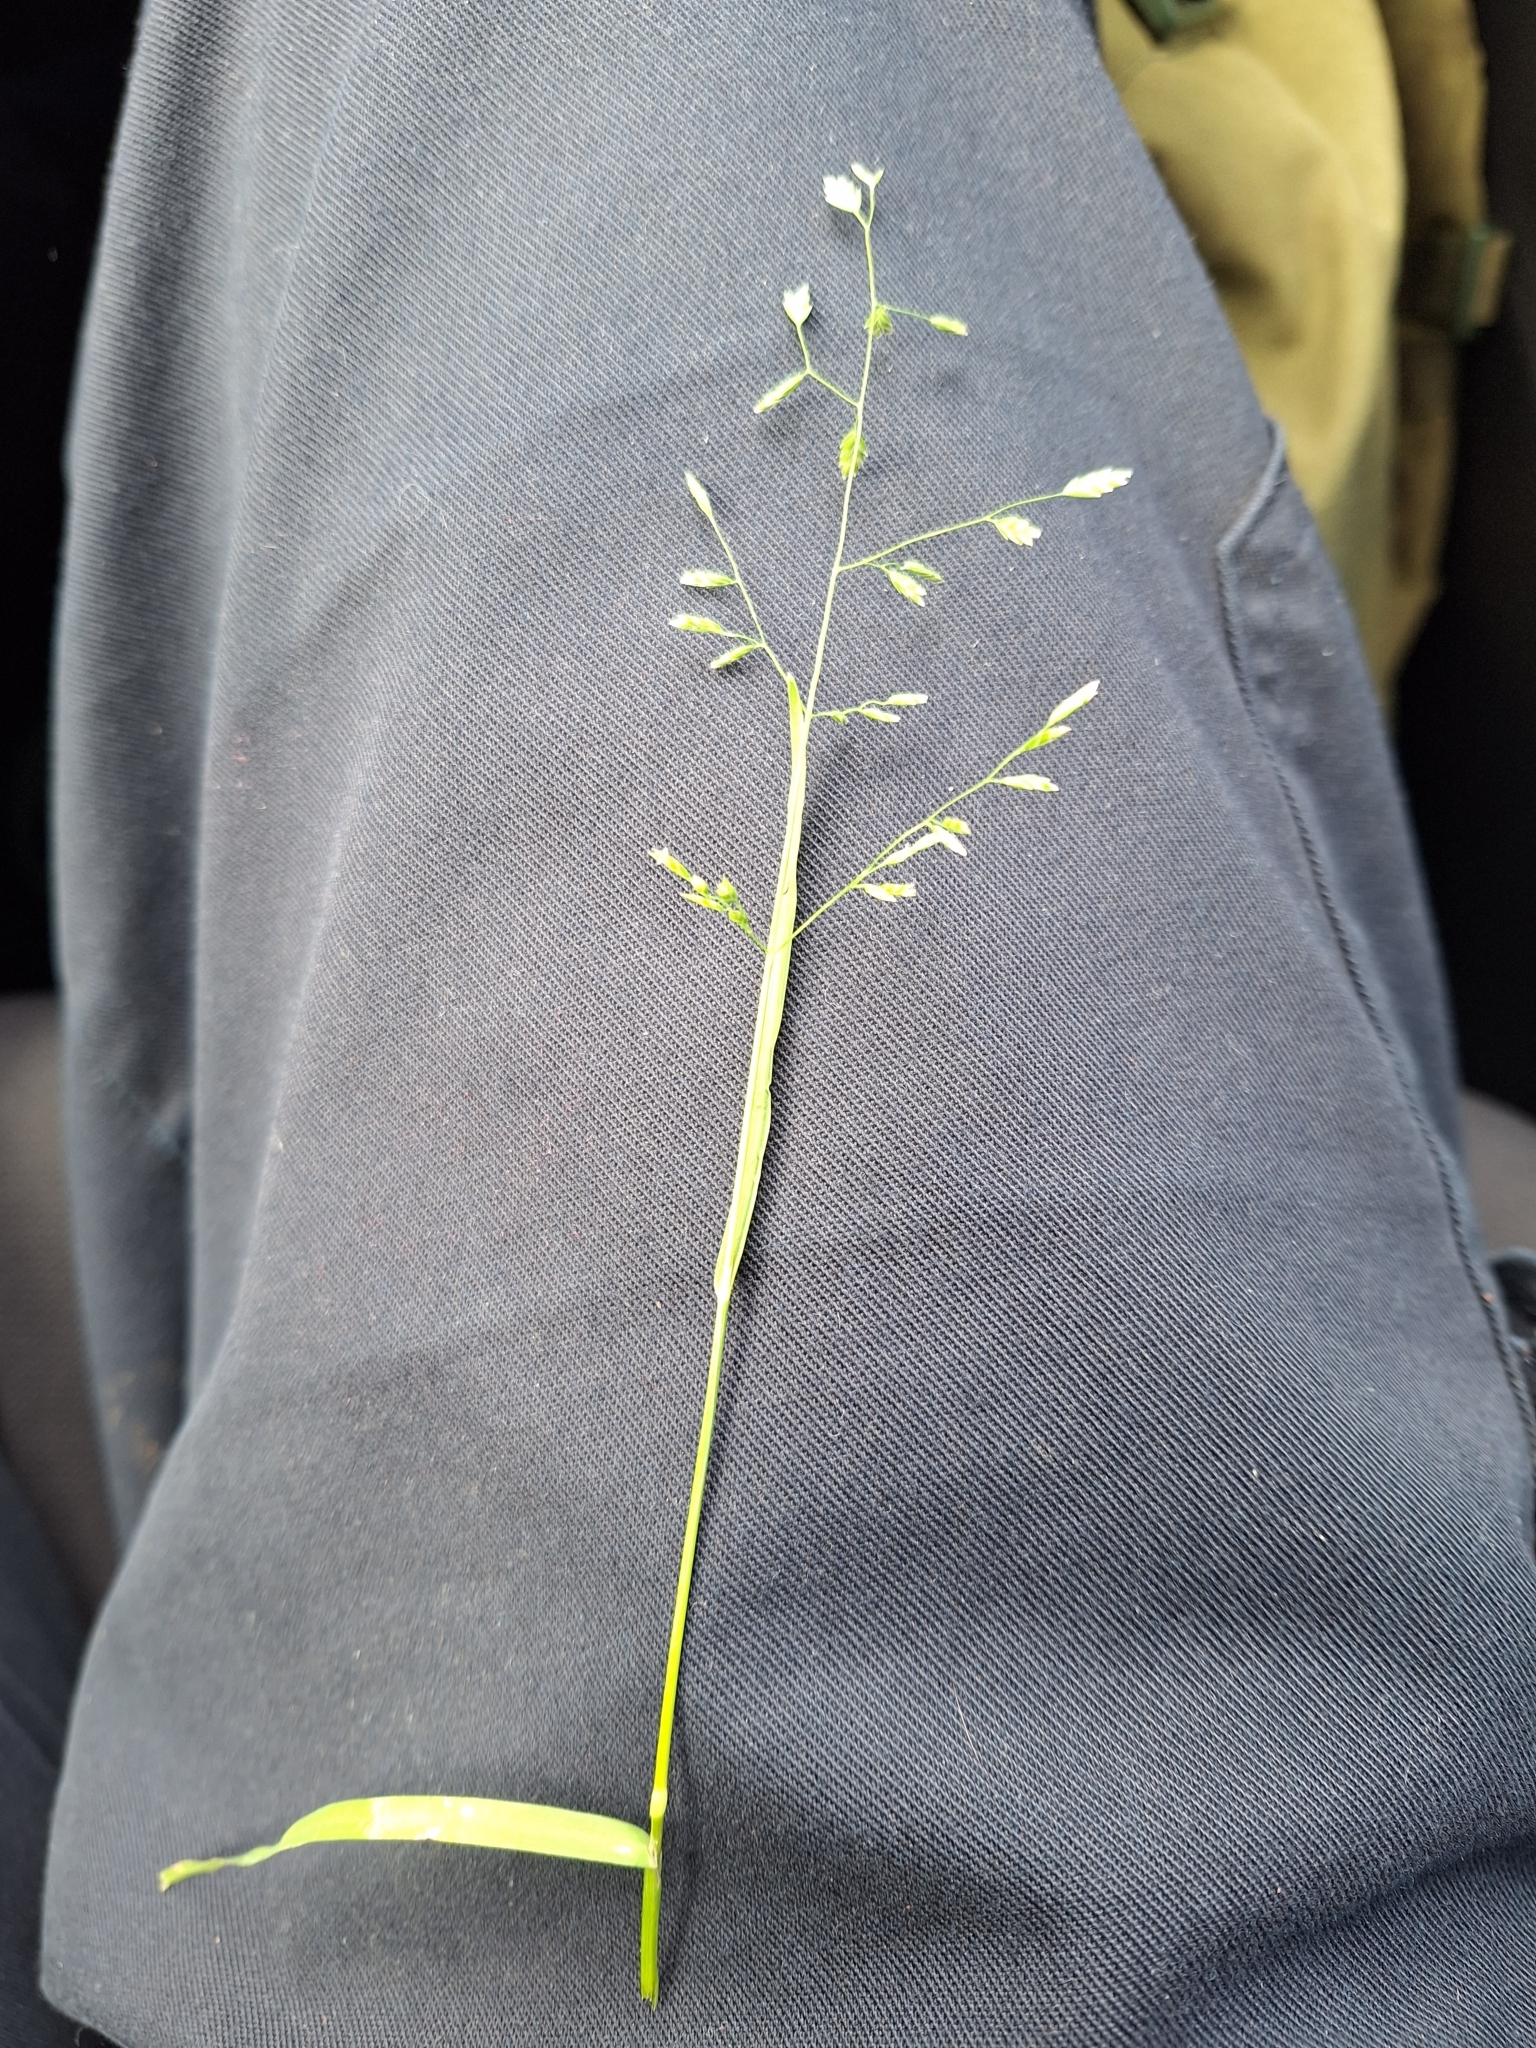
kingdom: Plantae
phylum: Tracheophyta
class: Liliopsida
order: Poales
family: Poaceae
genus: Poa
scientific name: Poa annua
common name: Annual bluegrass
